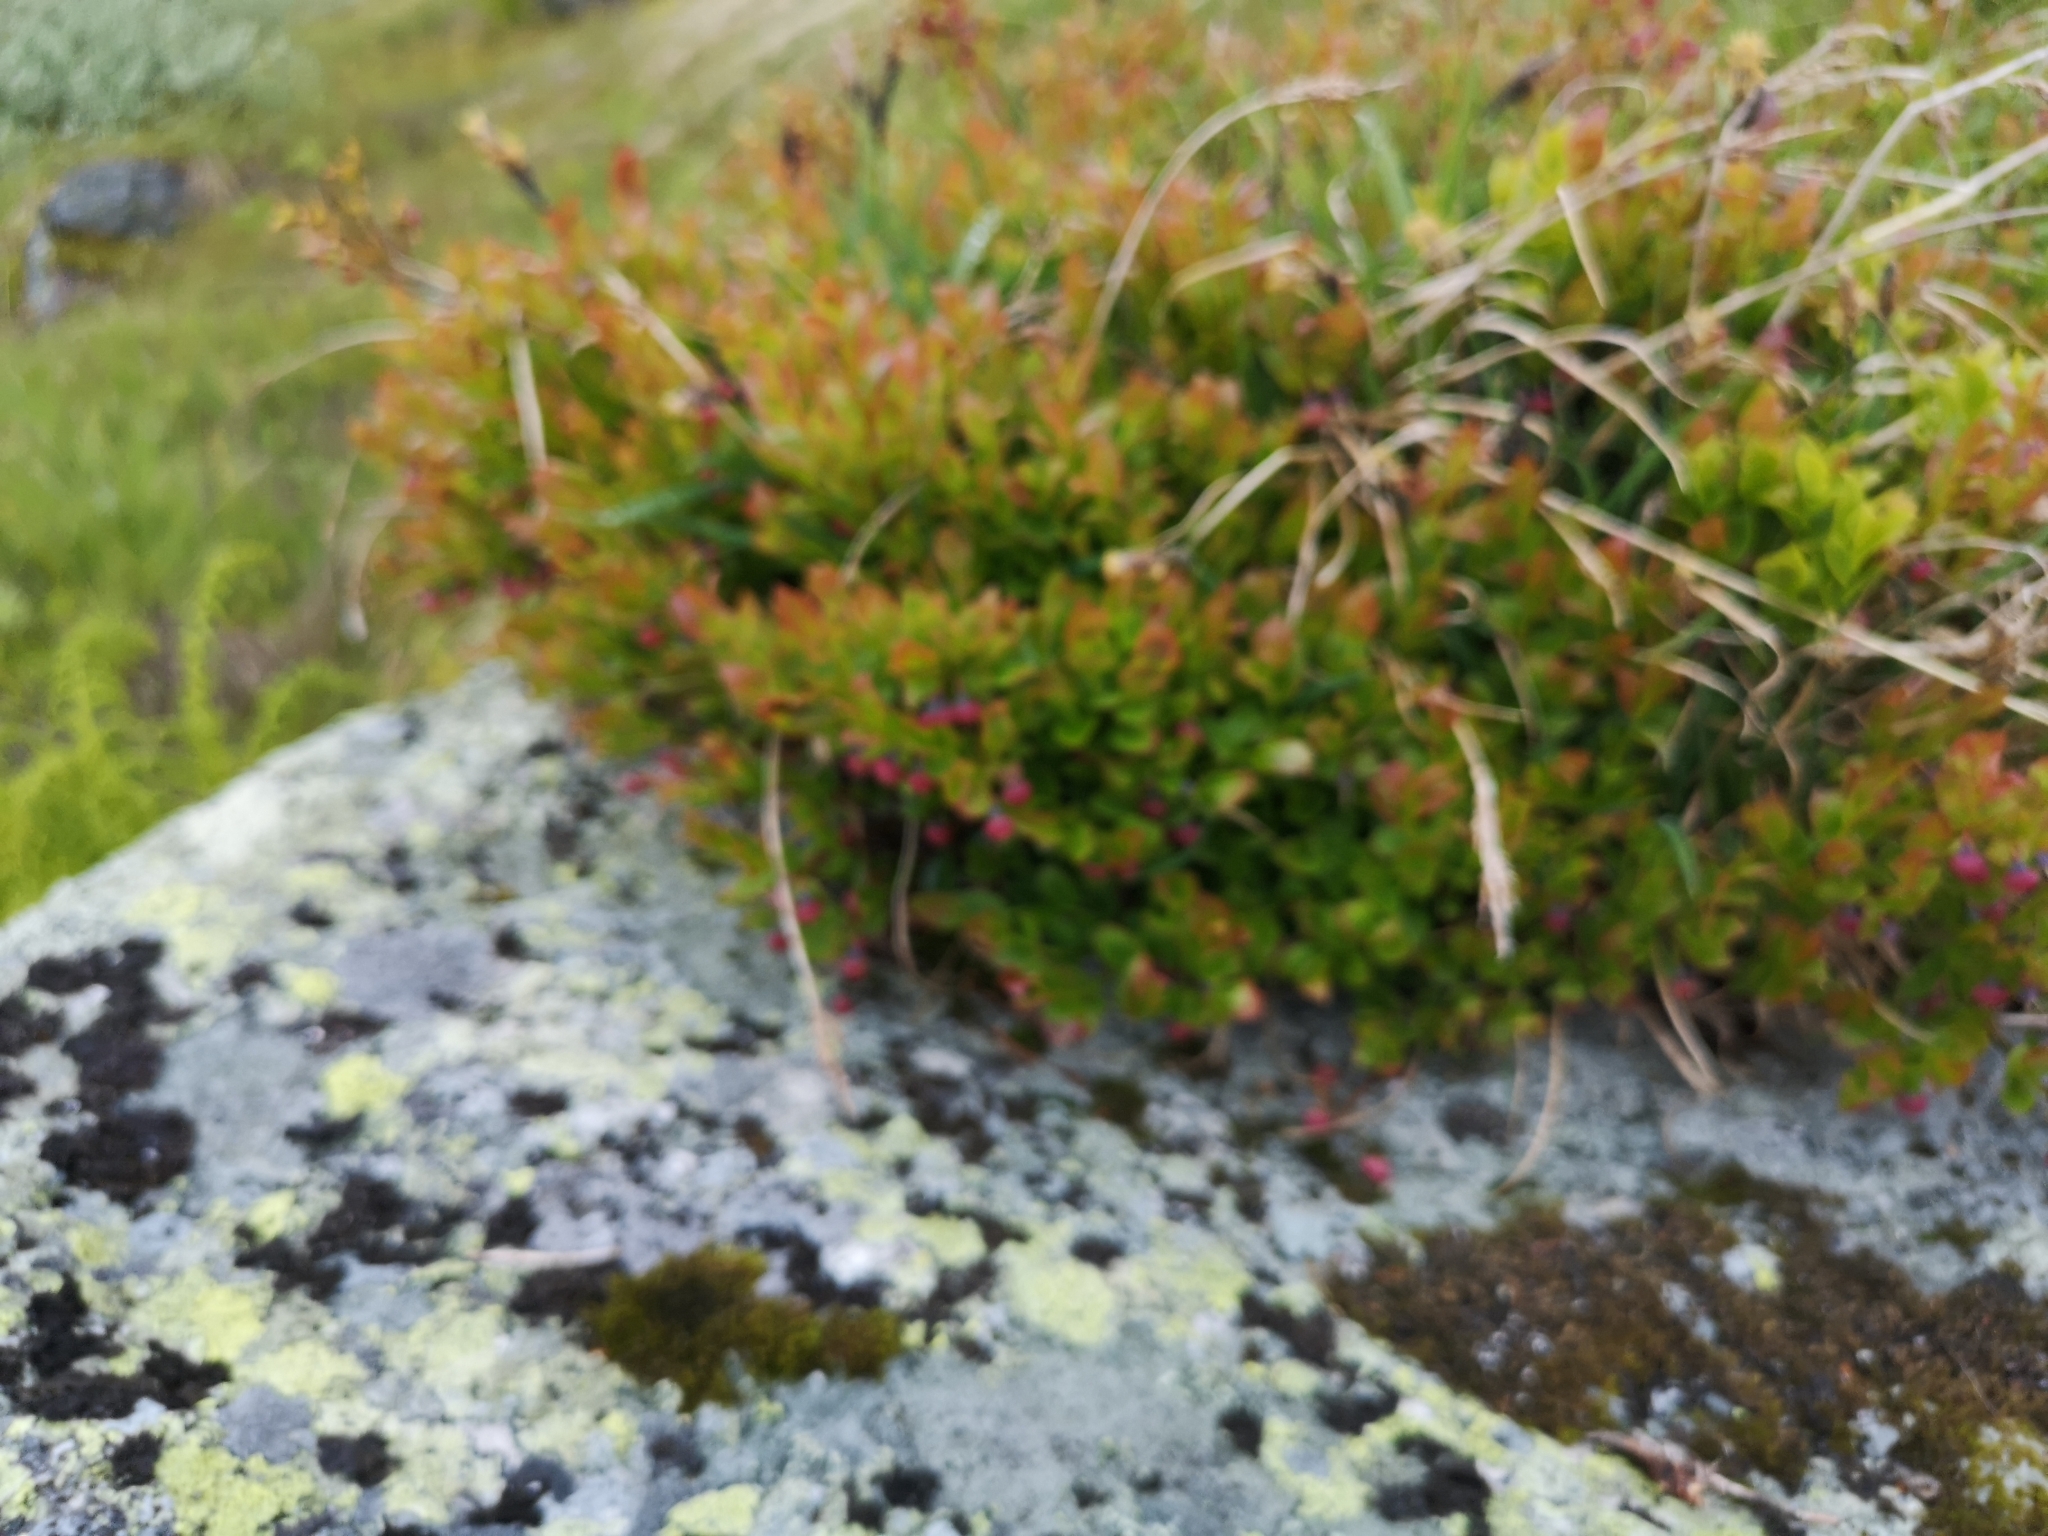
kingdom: Plantae
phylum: Tracheophyta
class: Magnoliopsida
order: Ericales
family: Ericaceae
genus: Vaccinium
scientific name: Vaccinium myrtillus
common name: Bilberry
